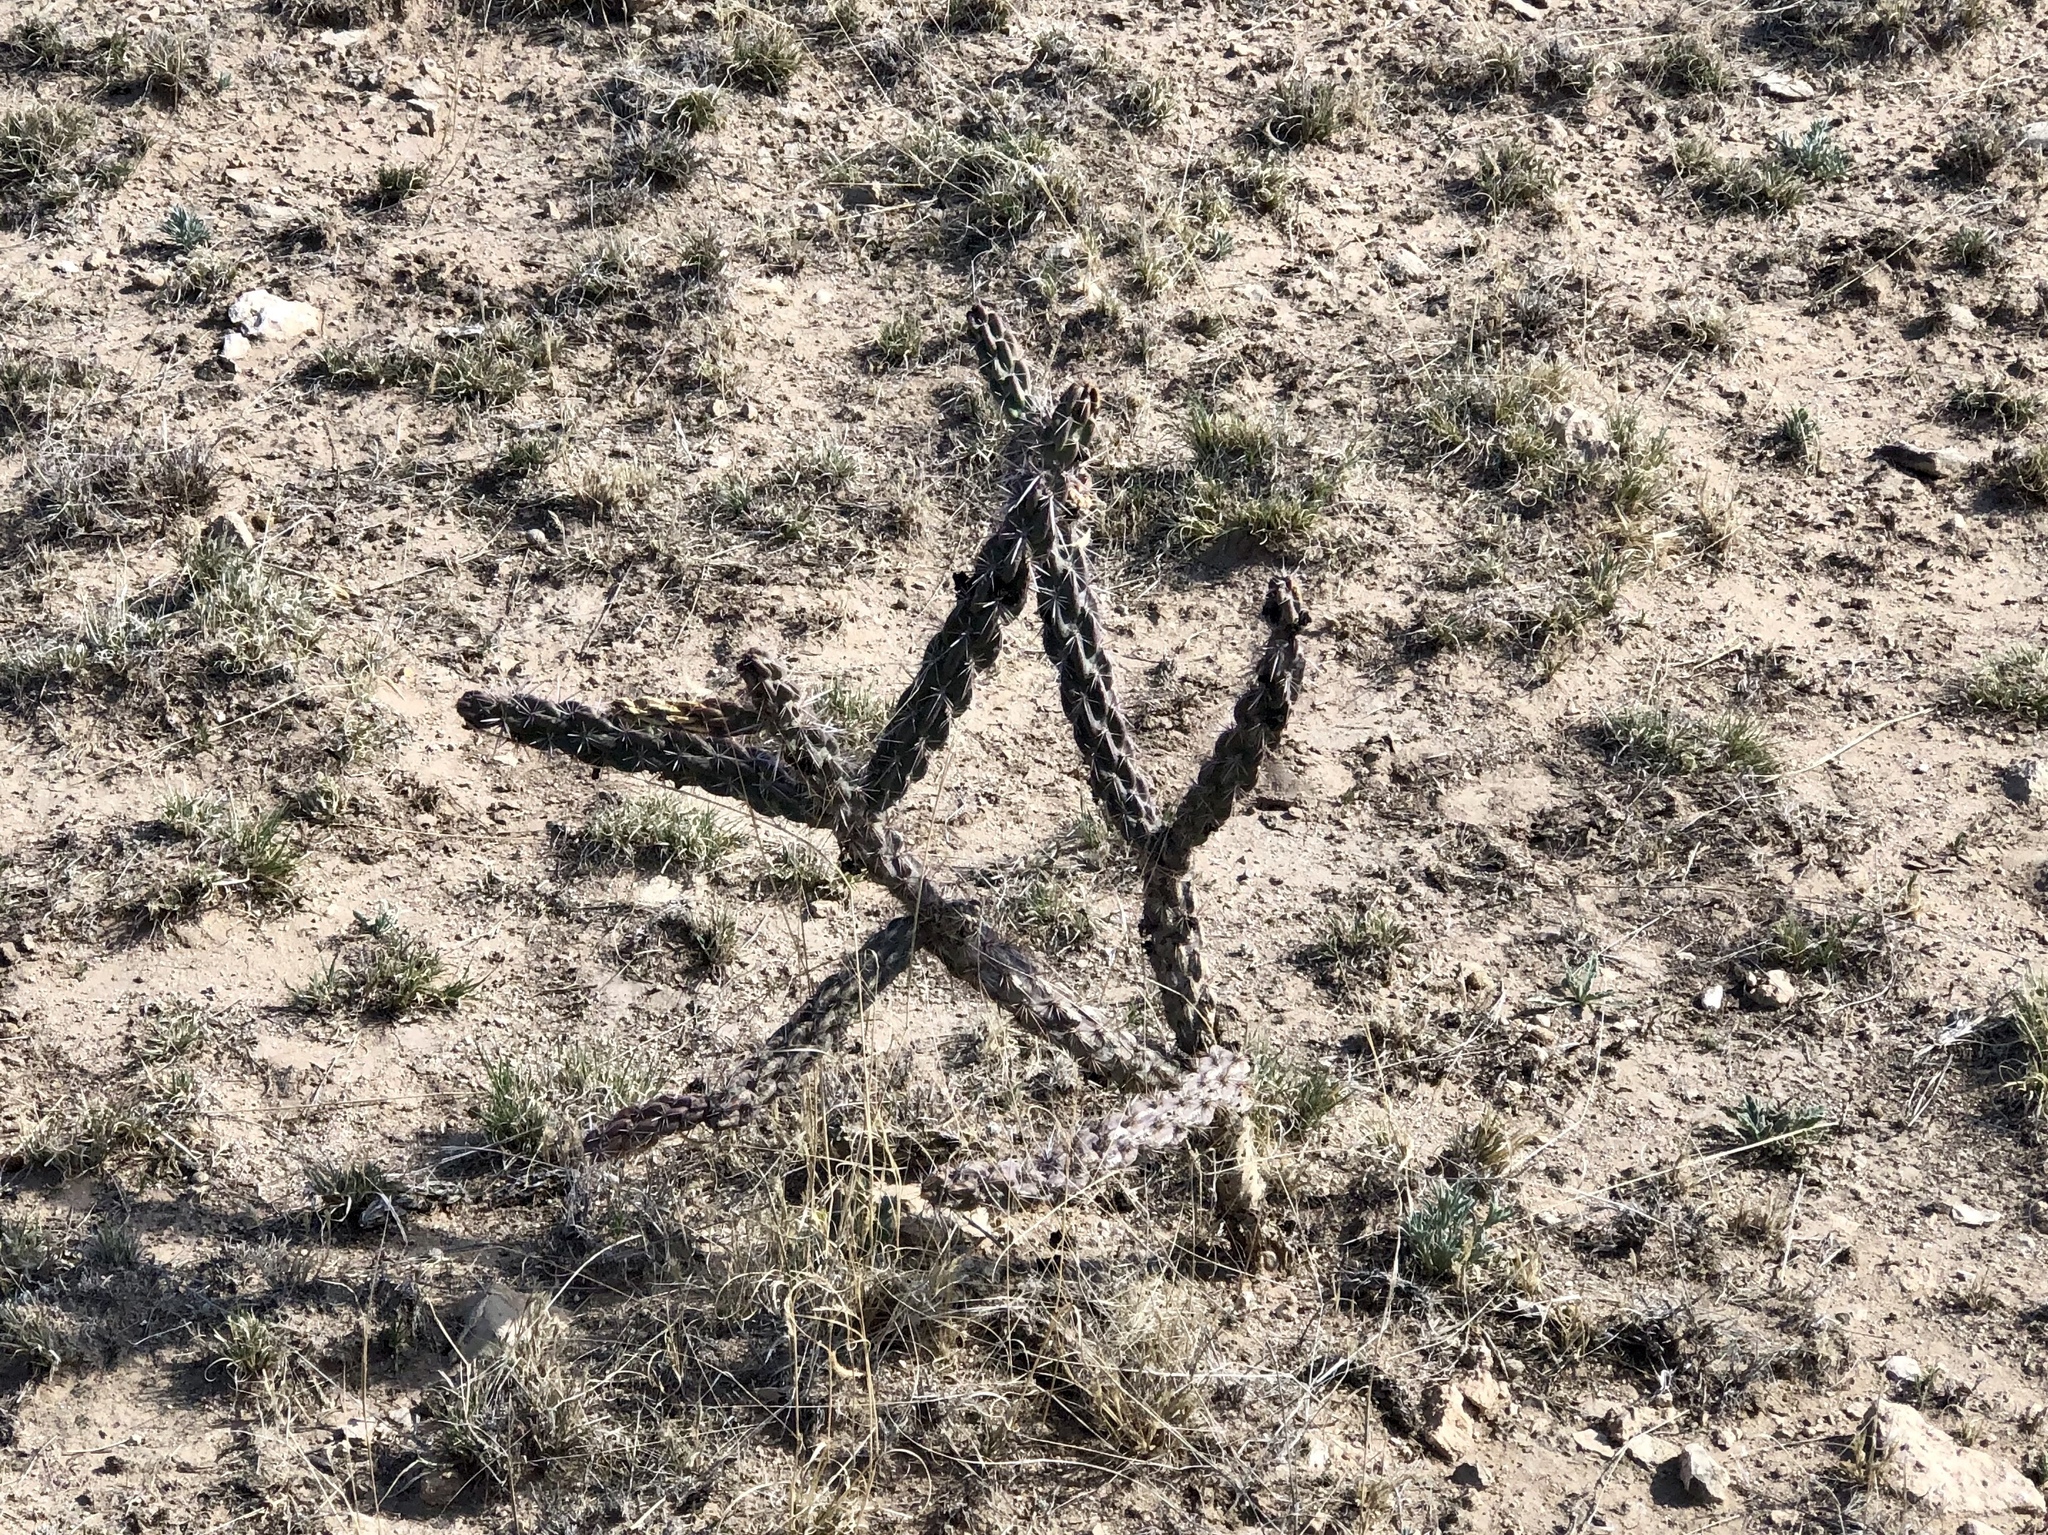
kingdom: Plantae
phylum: Tracheophyta
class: Magnoliopsida
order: Caryophyllales
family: Cactaceae
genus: Cylindropuntia
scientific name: Cylindropuntia imbricata
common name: Candelabrum cactus
